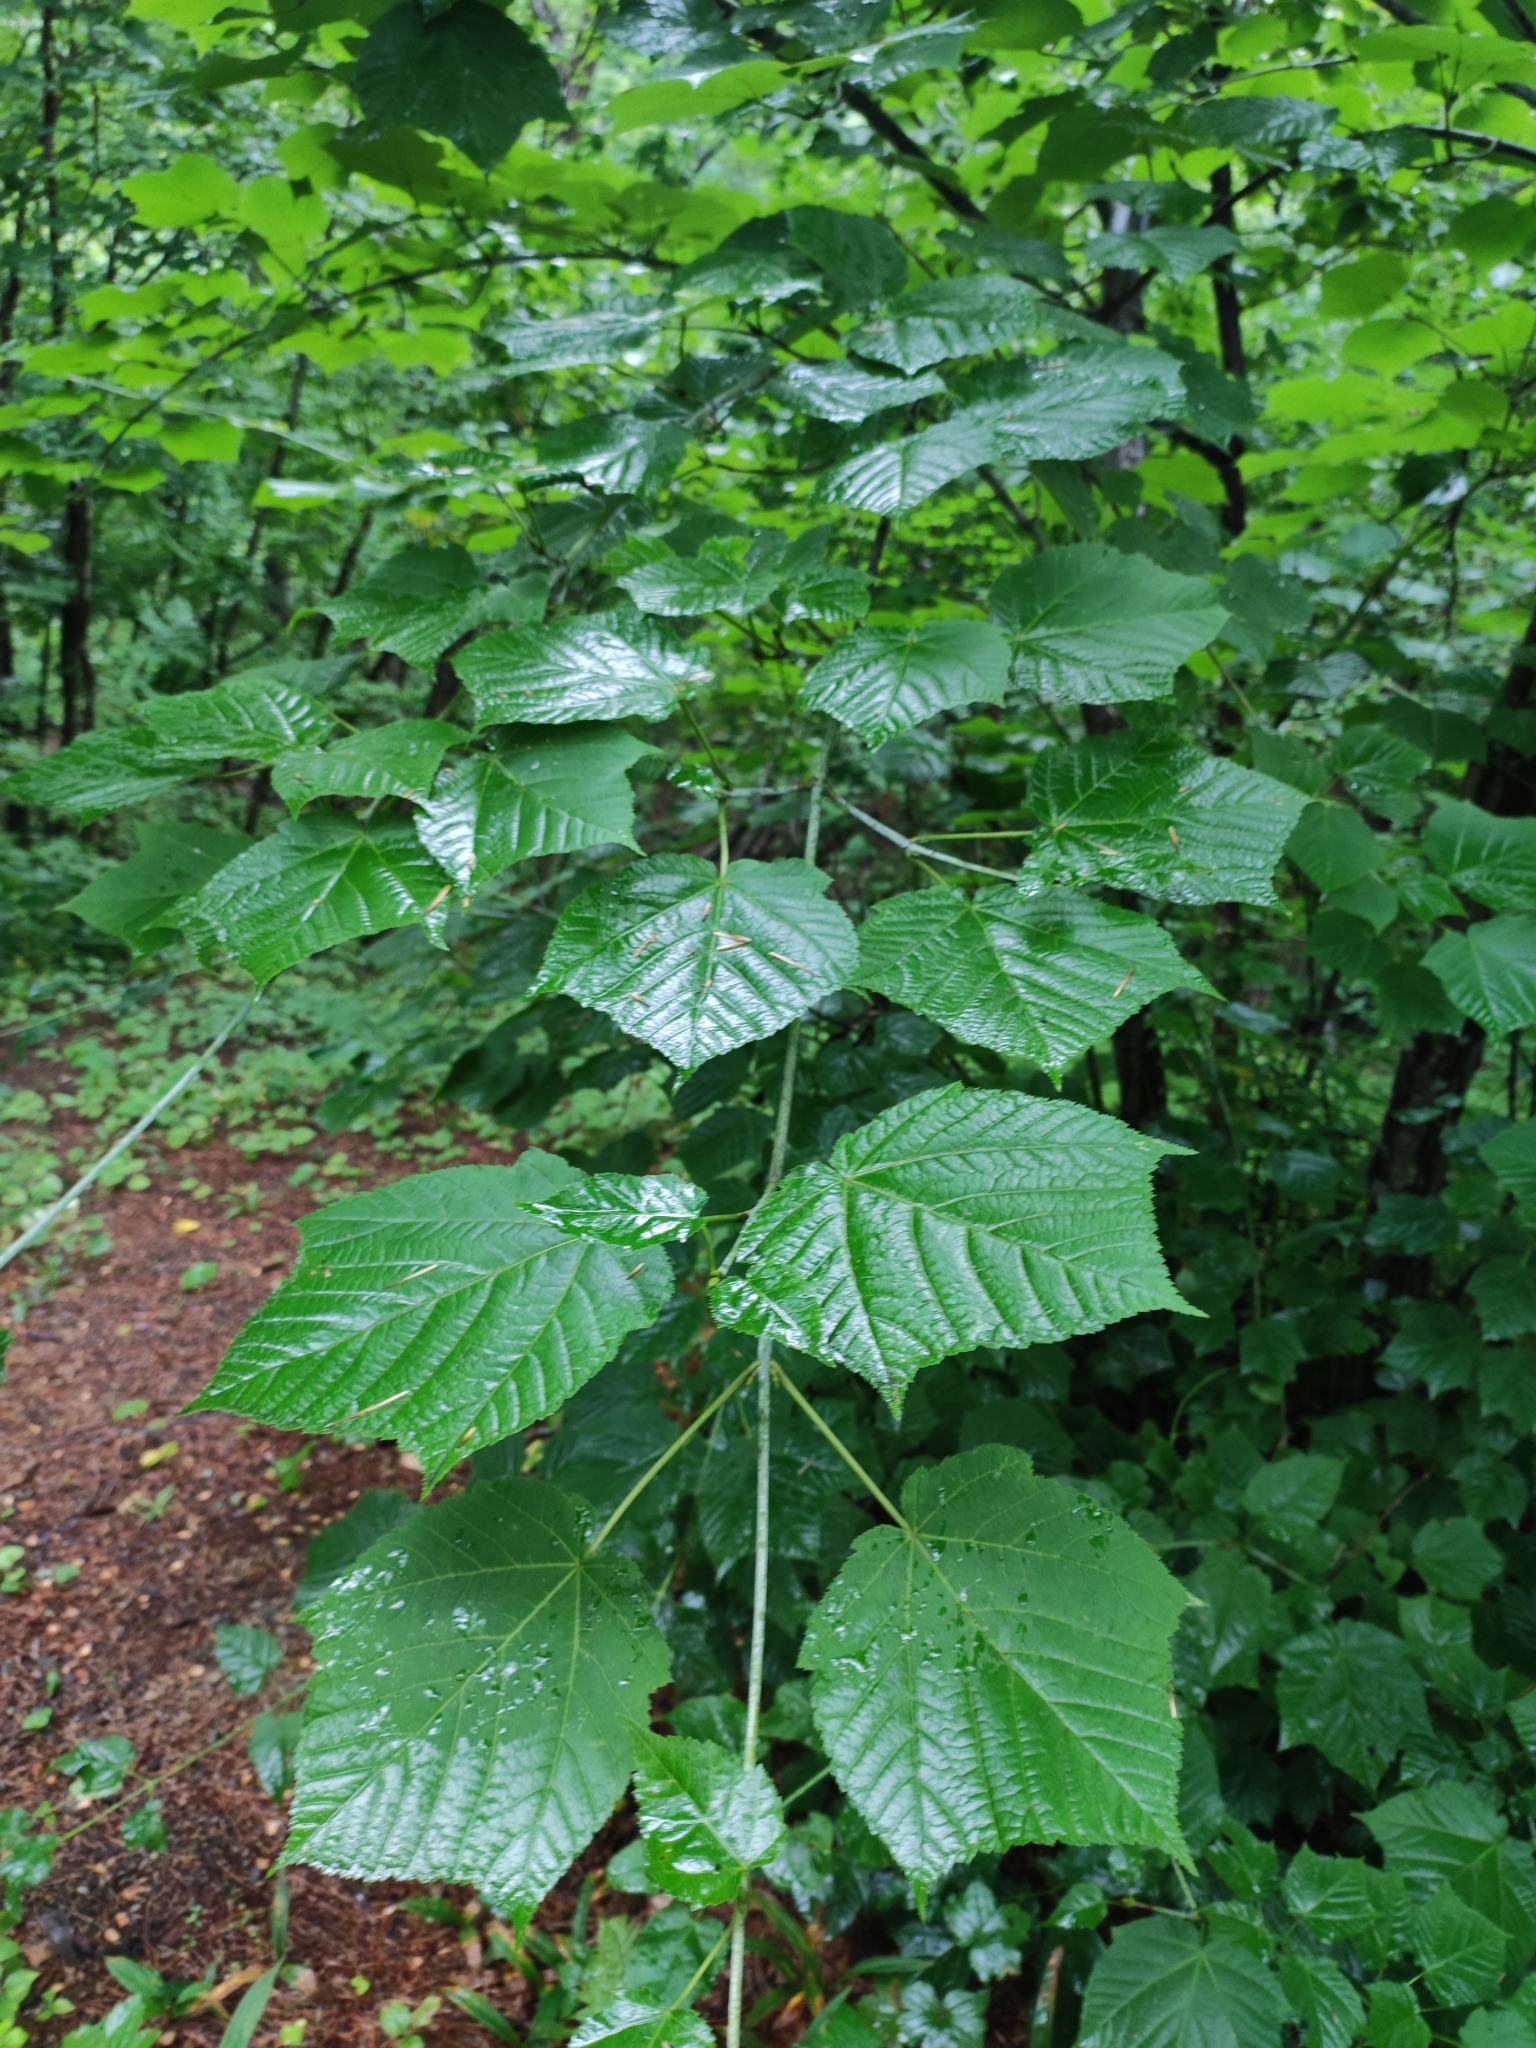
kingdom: Plantae
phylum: Tracheophyta
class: Magnoliopsida
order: Sapindales
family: Sapindaceae
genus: Acer
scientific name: Acer tegmentosum
